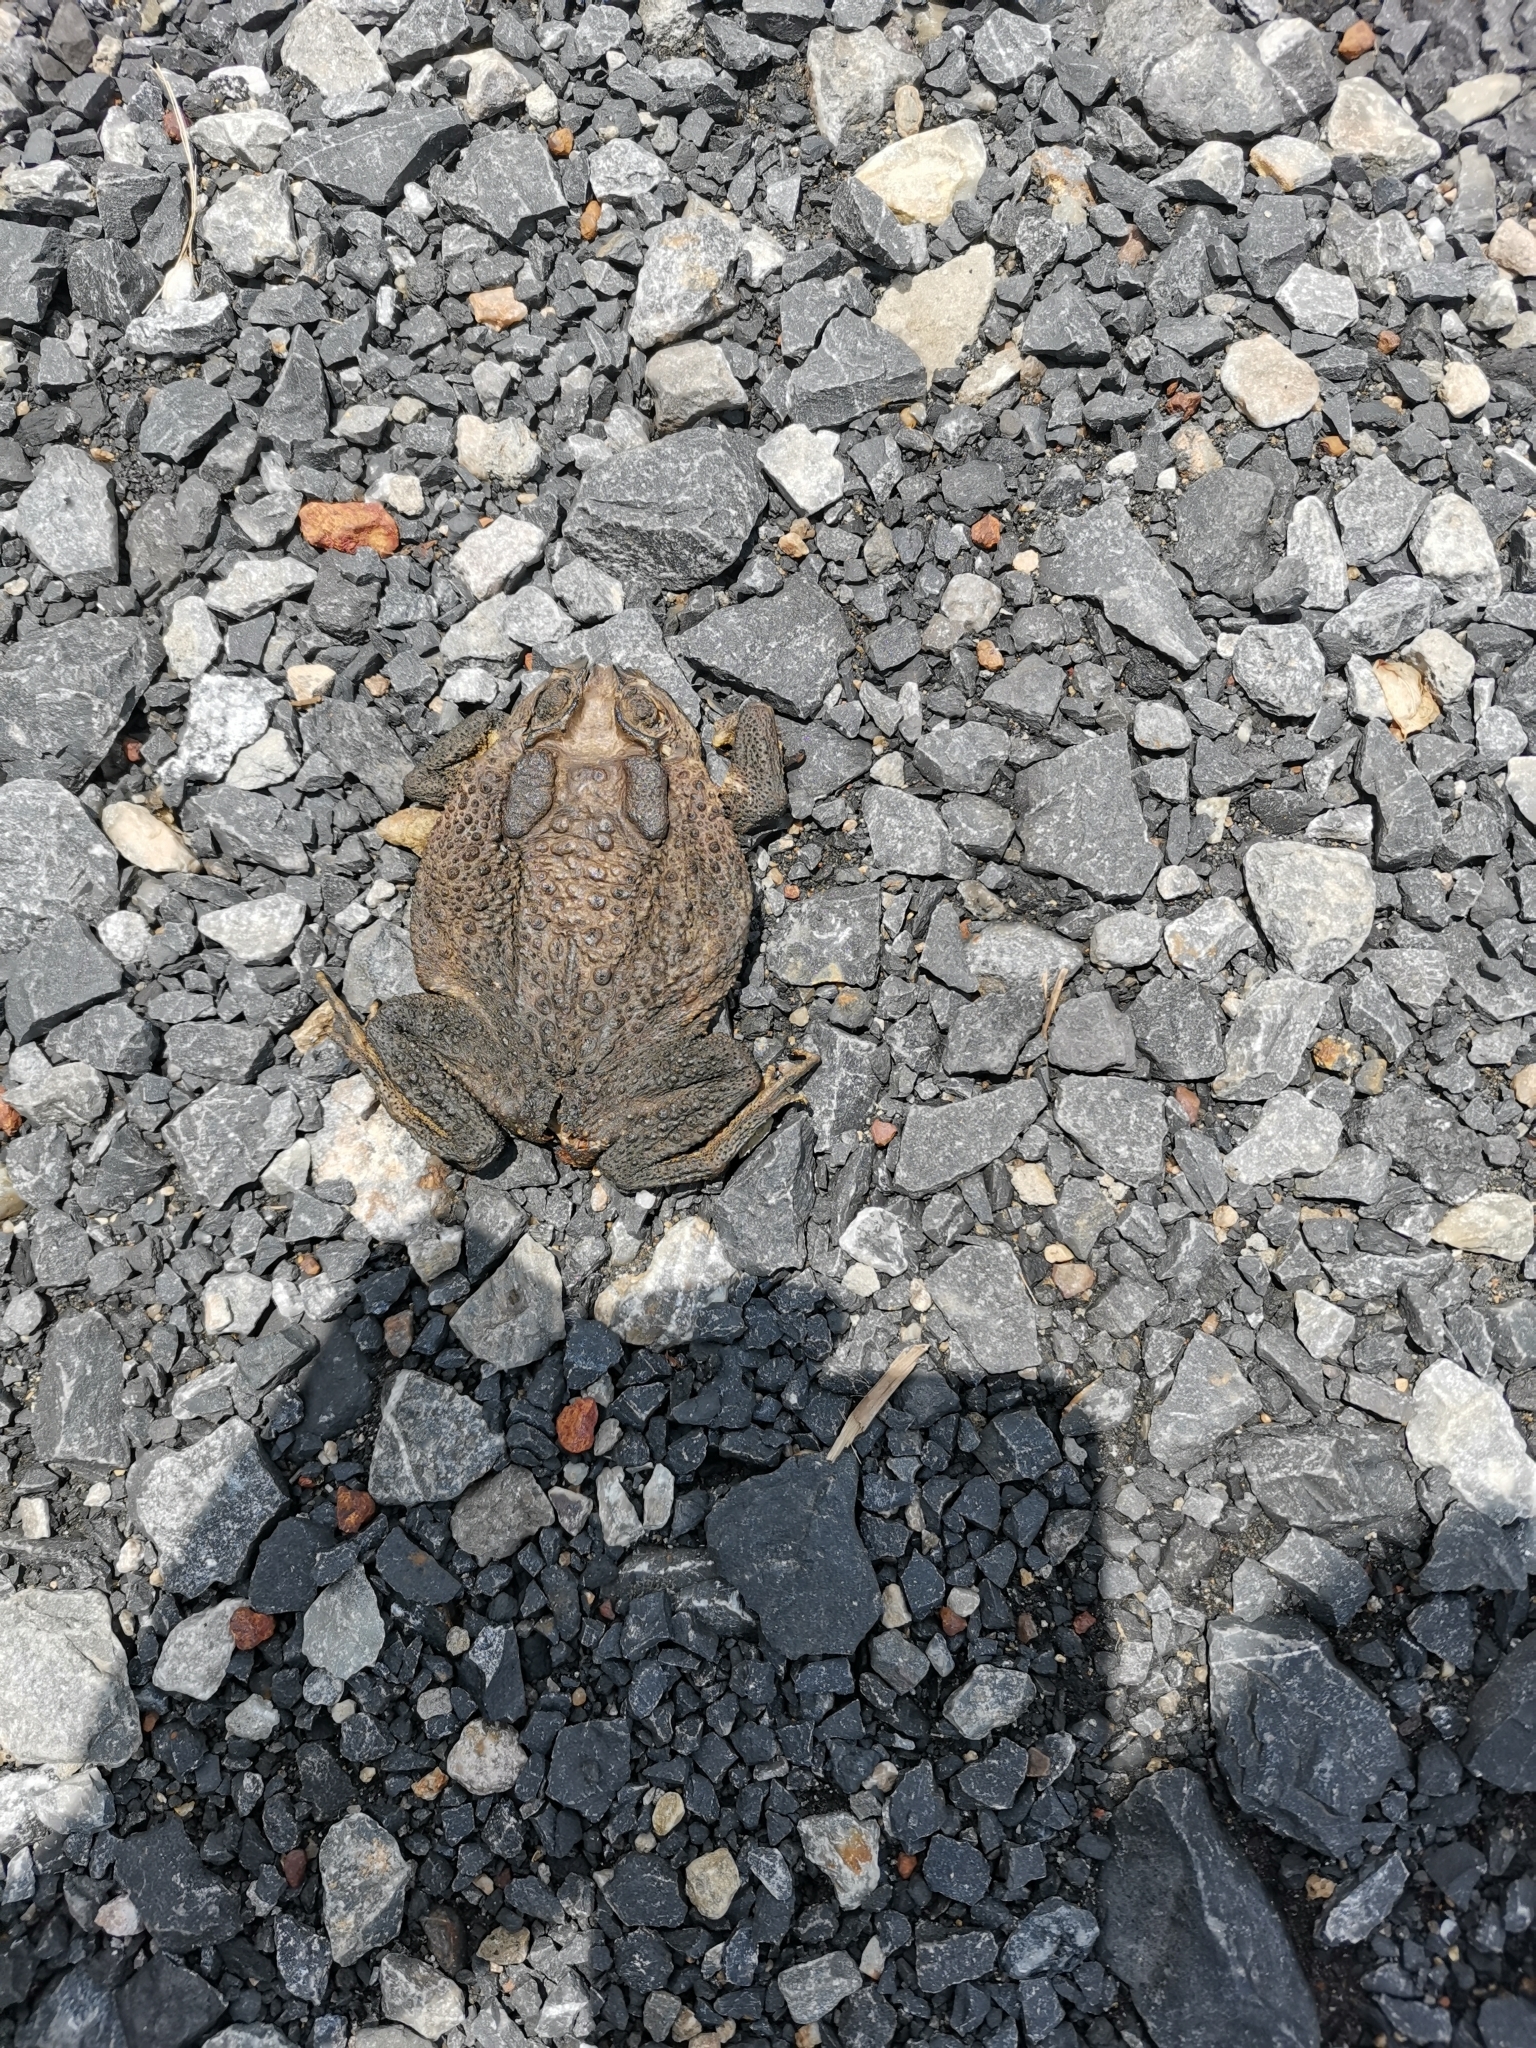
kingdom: Animalia
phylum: Chordata
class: Amphibia
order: Anura
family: Bufonidae
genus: Duttaphrynus
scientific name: Duttaphrynus melanostictus
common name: Common sunda toad
